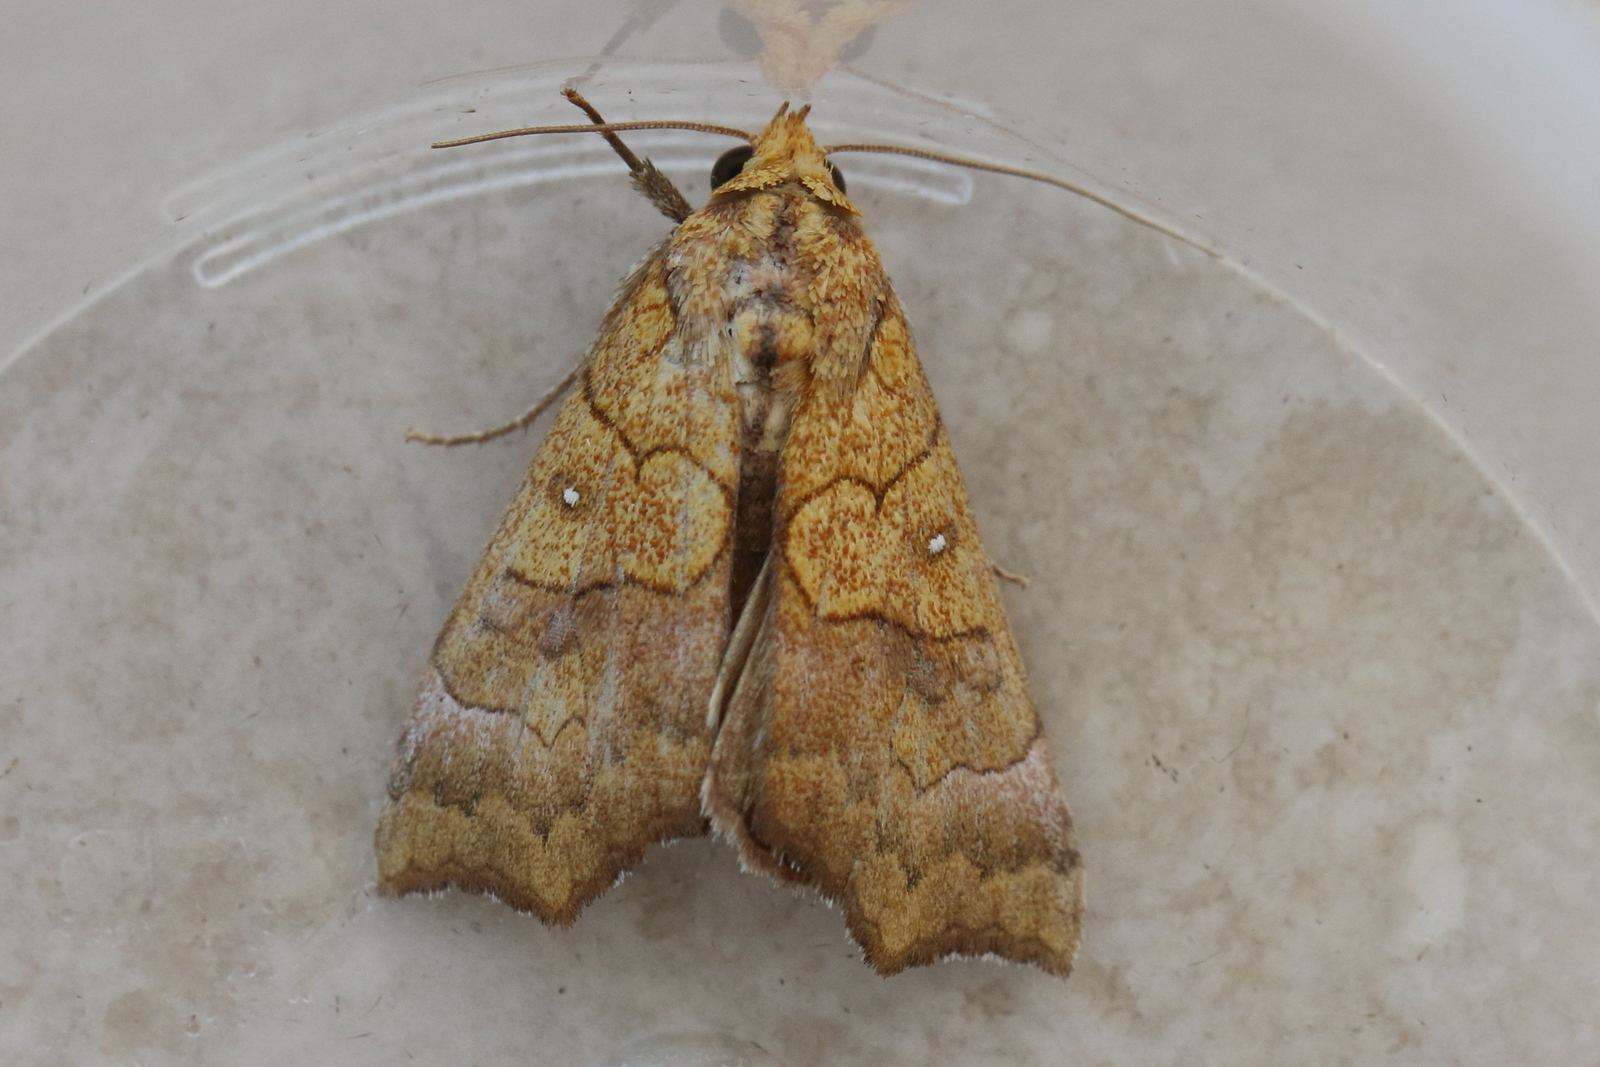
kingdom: Animalia
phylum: Arthropoda
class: Insecta
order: Lepidoptera
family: Erebidae
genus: Cosmophila
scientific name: Cosmophila lyona
